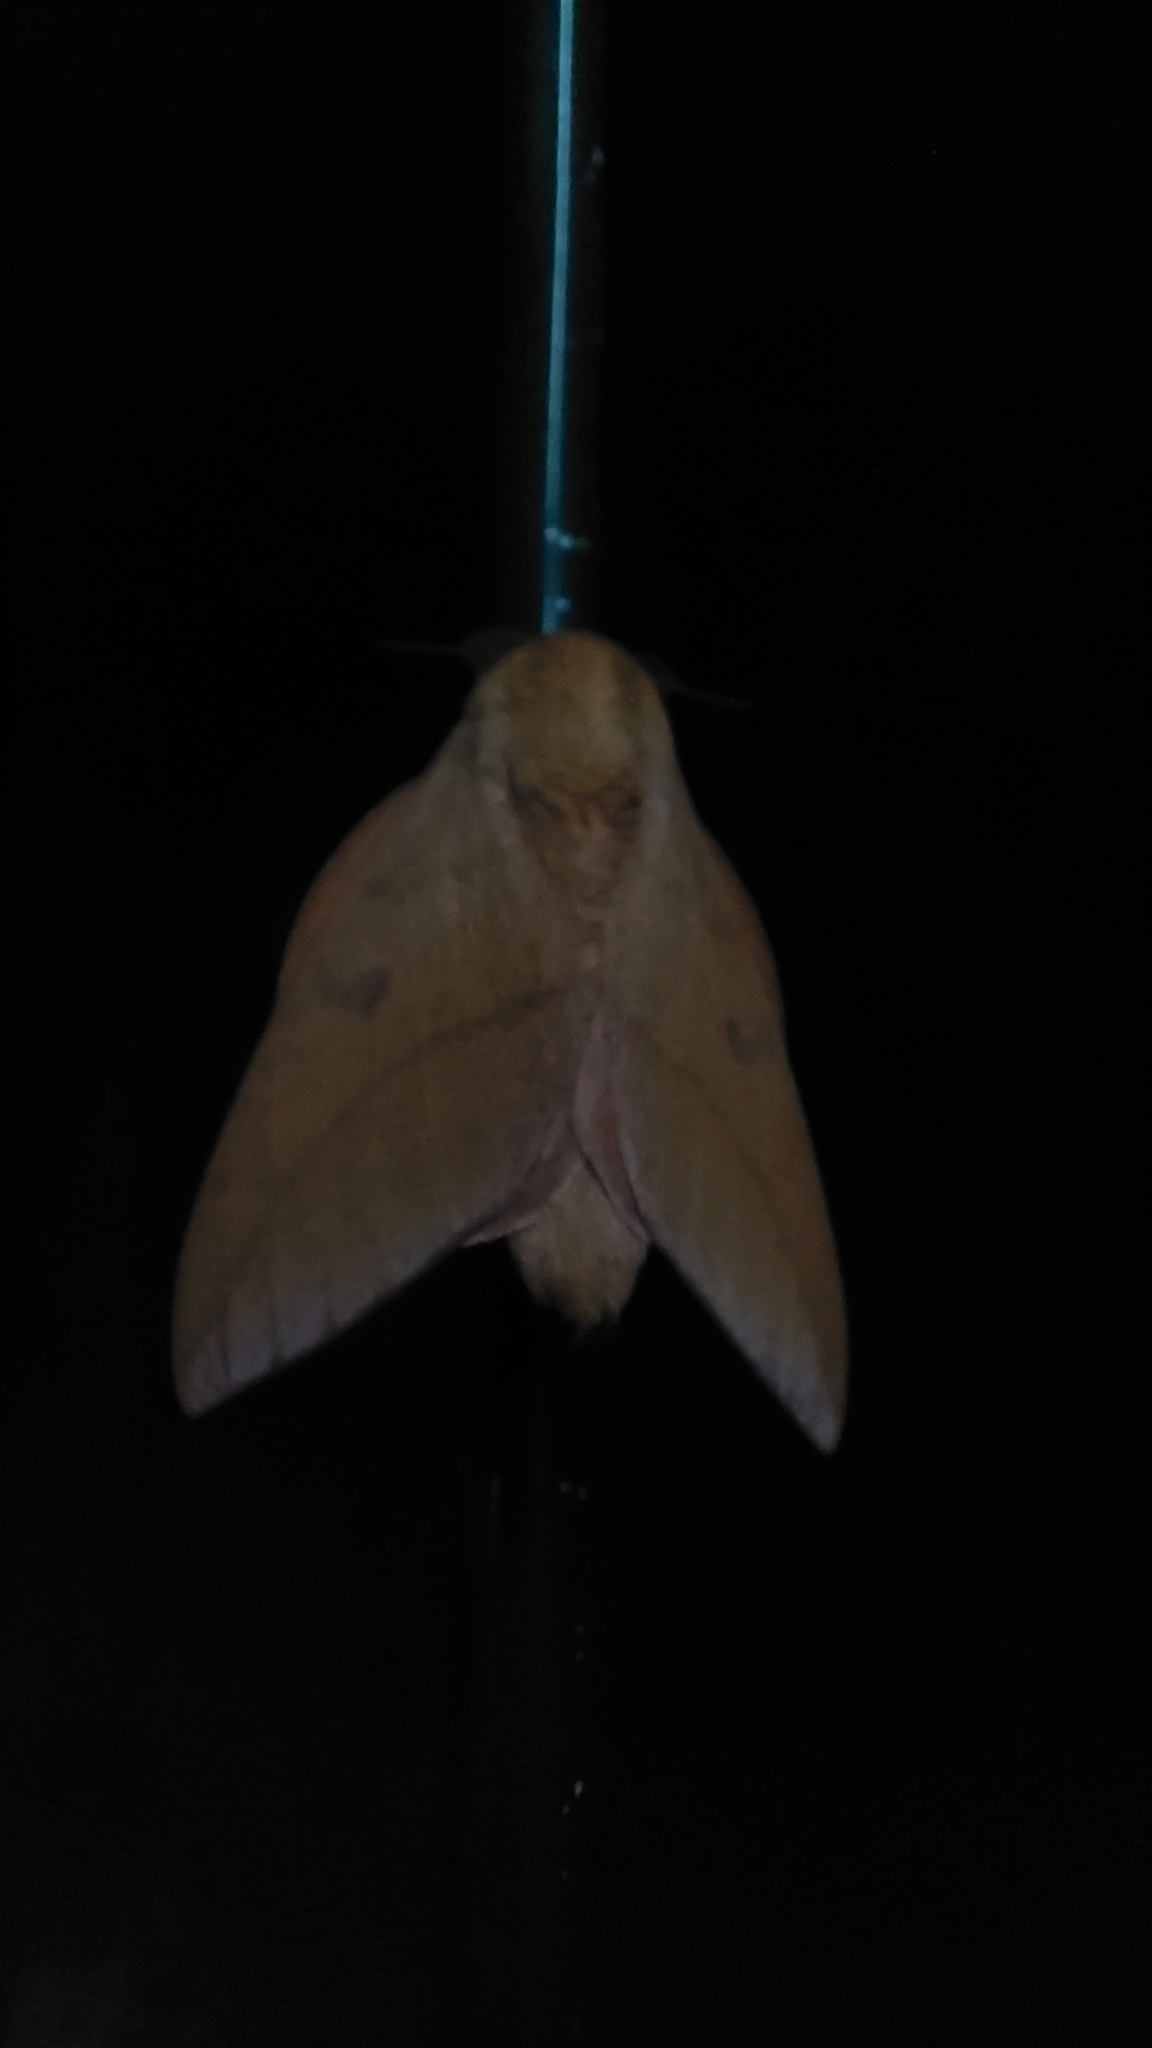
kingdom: Animalia
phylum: Arthropoda
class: Insecta
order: Lepidoptera
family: Saturniidae
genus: Adeloneivaia
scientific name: Adeloneivaia catharina
